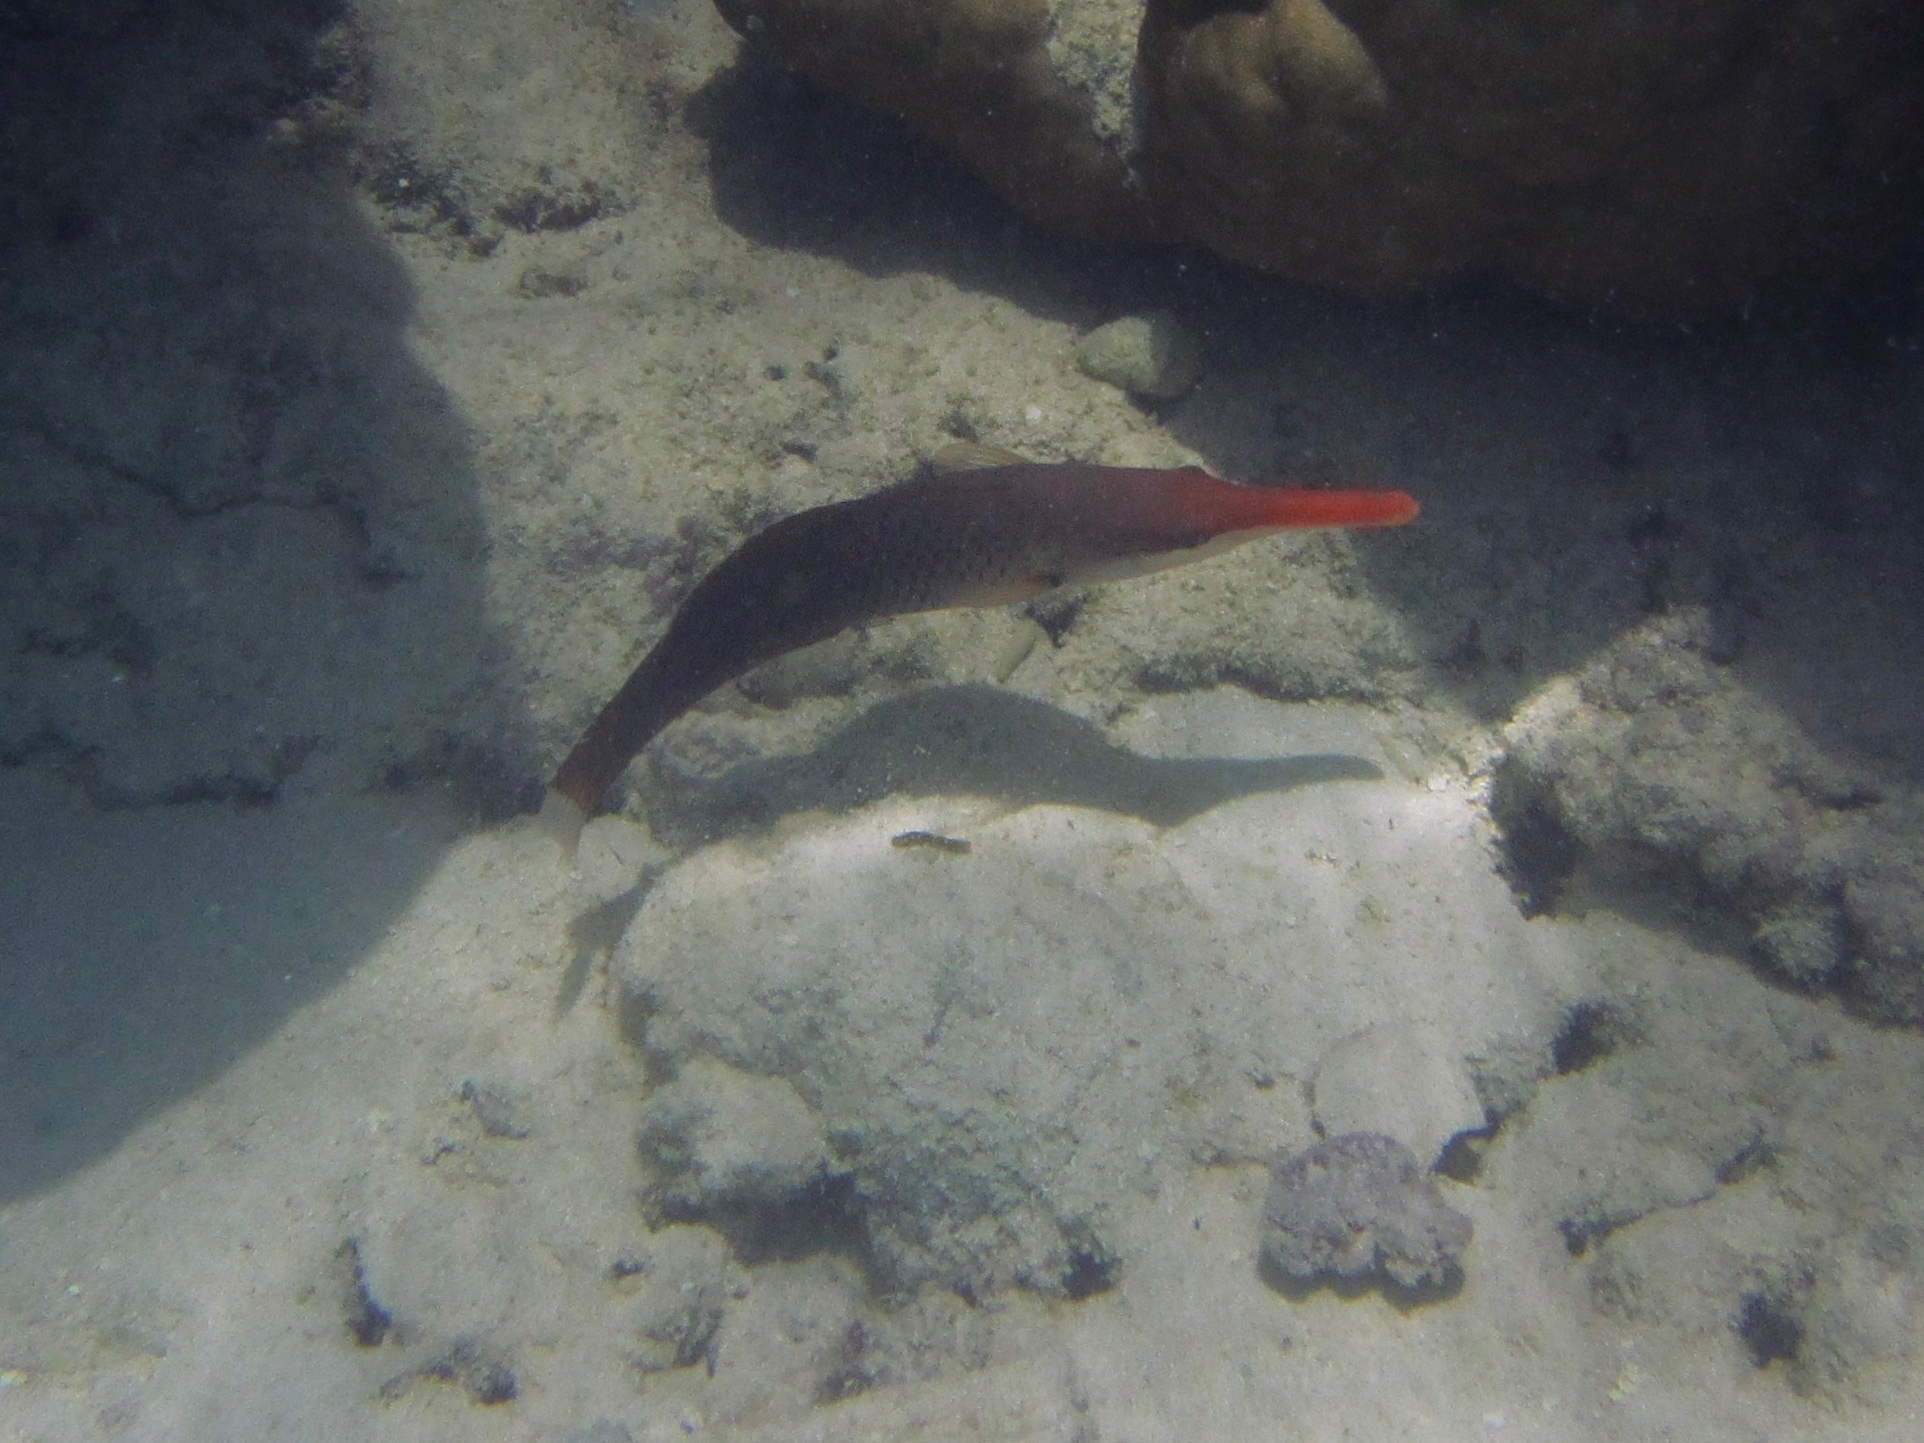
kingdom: Animalia
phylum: Chordata
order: Perciformes
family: Labridae
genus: Gomphosus
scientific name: Gomphosus varius
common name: Bird wrasse
